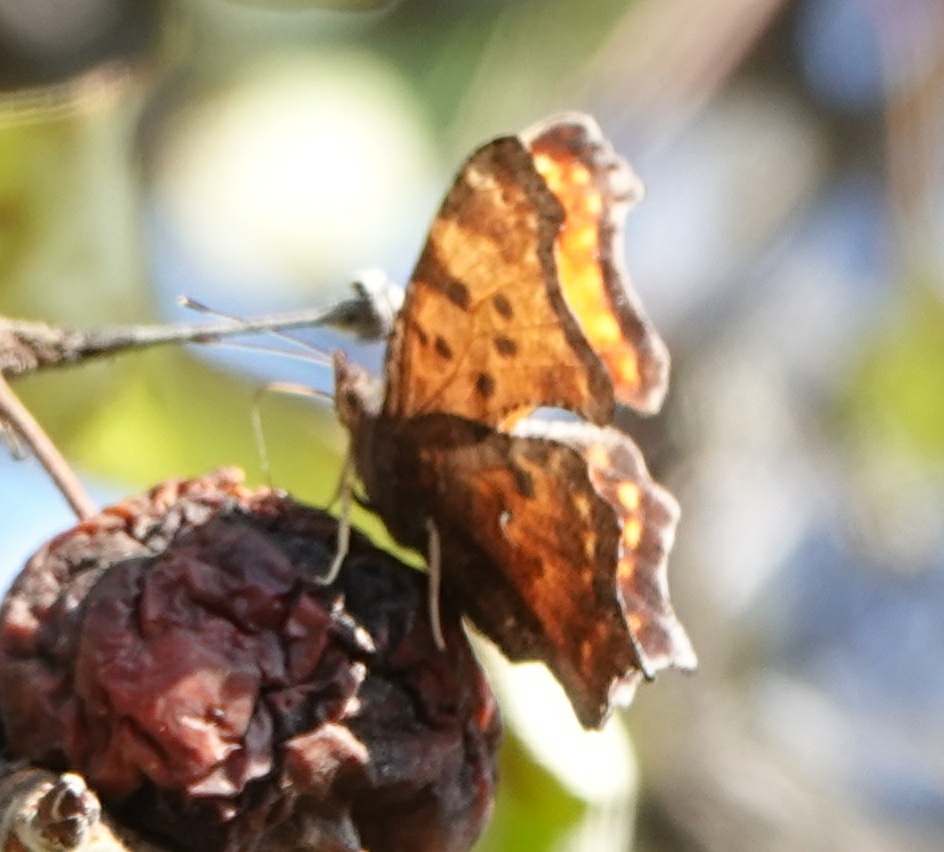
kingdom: Animalia
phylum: Arthropoda
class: Insecta
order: Lepidoptera
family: Nymphalidae
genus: Polygonia
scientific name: Polygonia comma
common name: Eastern comma
